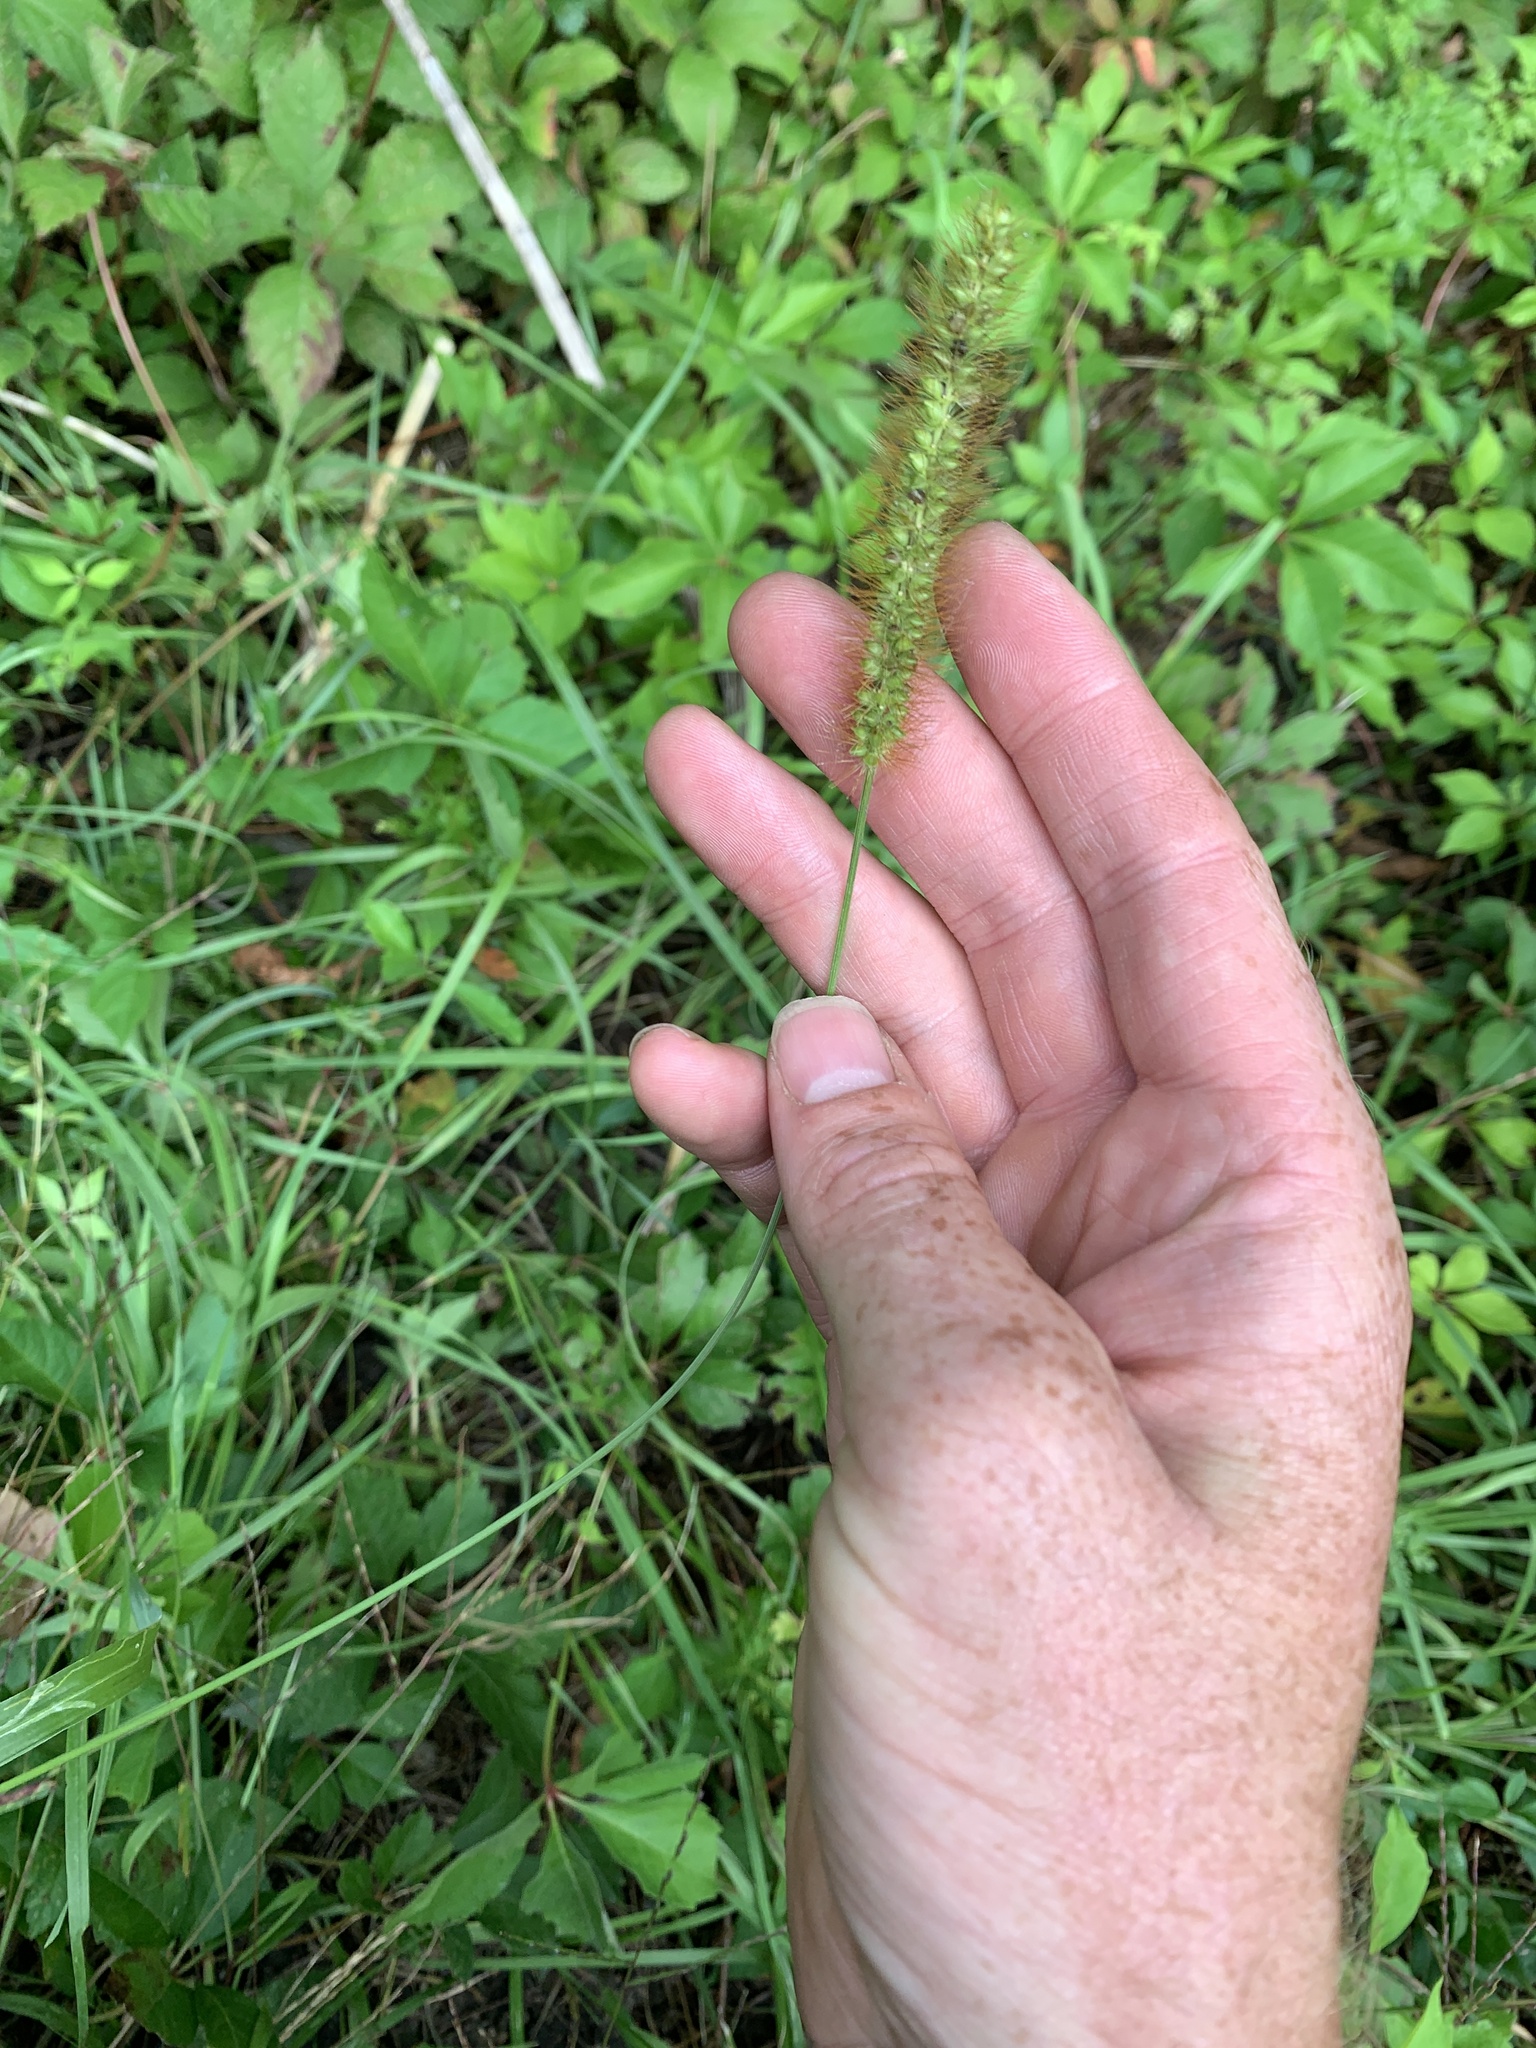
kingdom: Plantae
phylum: Tracheophyta
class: Liliopsida
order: Poales
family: Poaceae
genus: Setaria
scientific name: Setaria pumila
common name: Yellow bristle-grass
